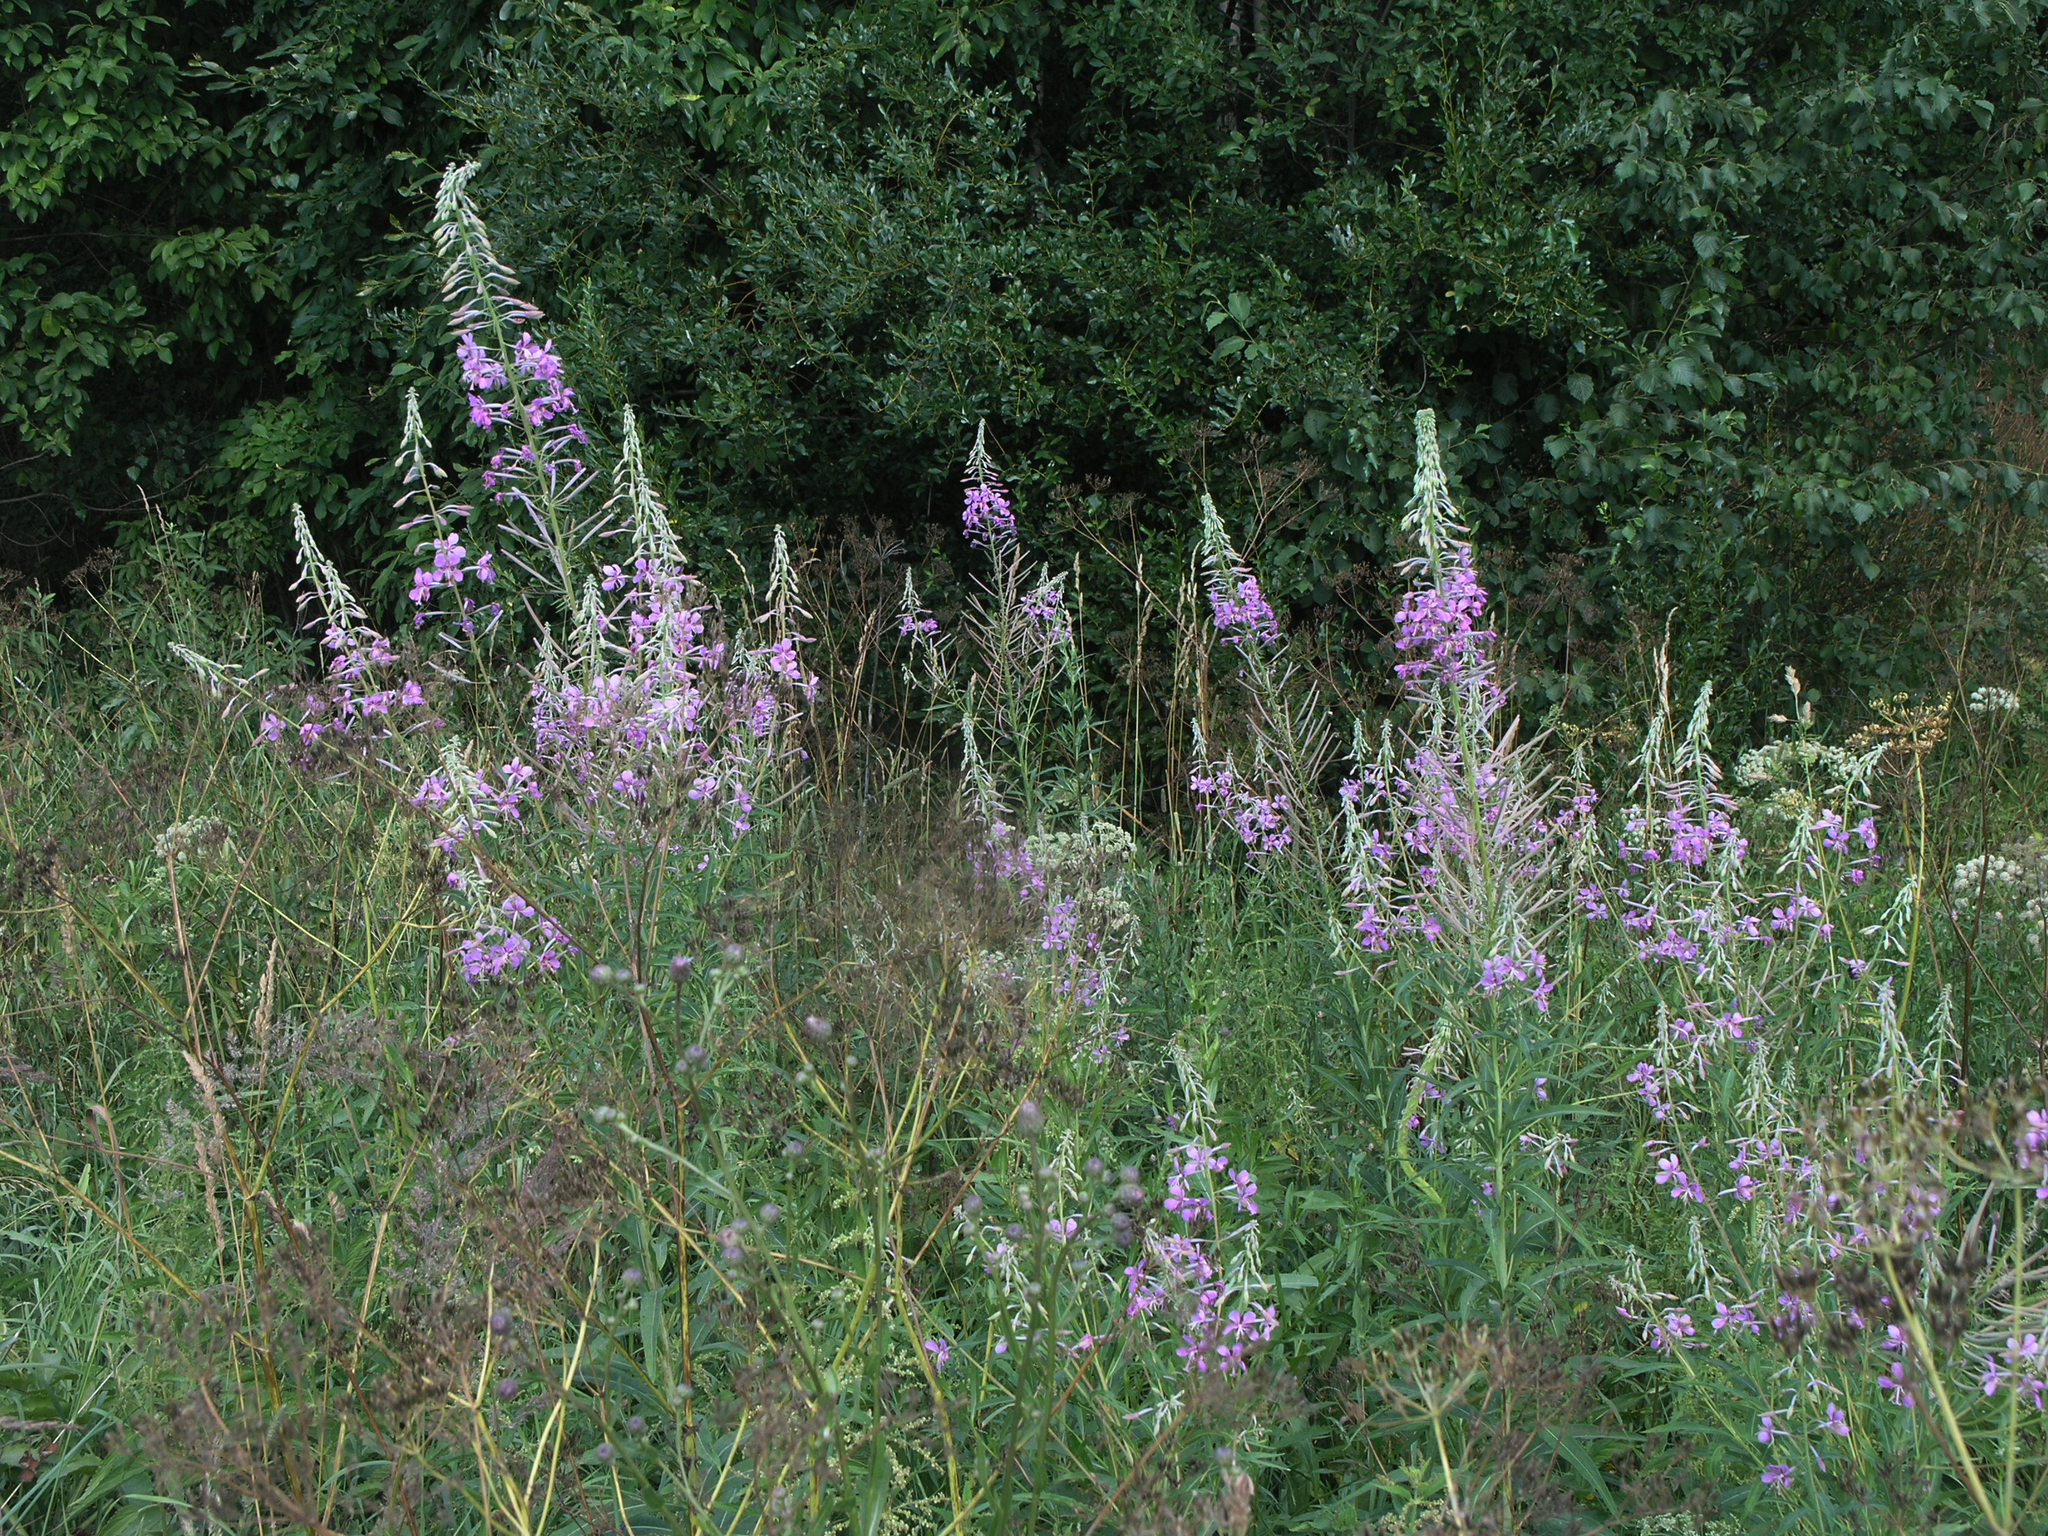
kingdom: Plantae
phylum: Tracheophyta
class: Magnoliopsida
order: Myrtales
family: Onagraceae
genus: Chamaenerion
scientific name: Chamaenerion angustifolium
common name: Fireweed
